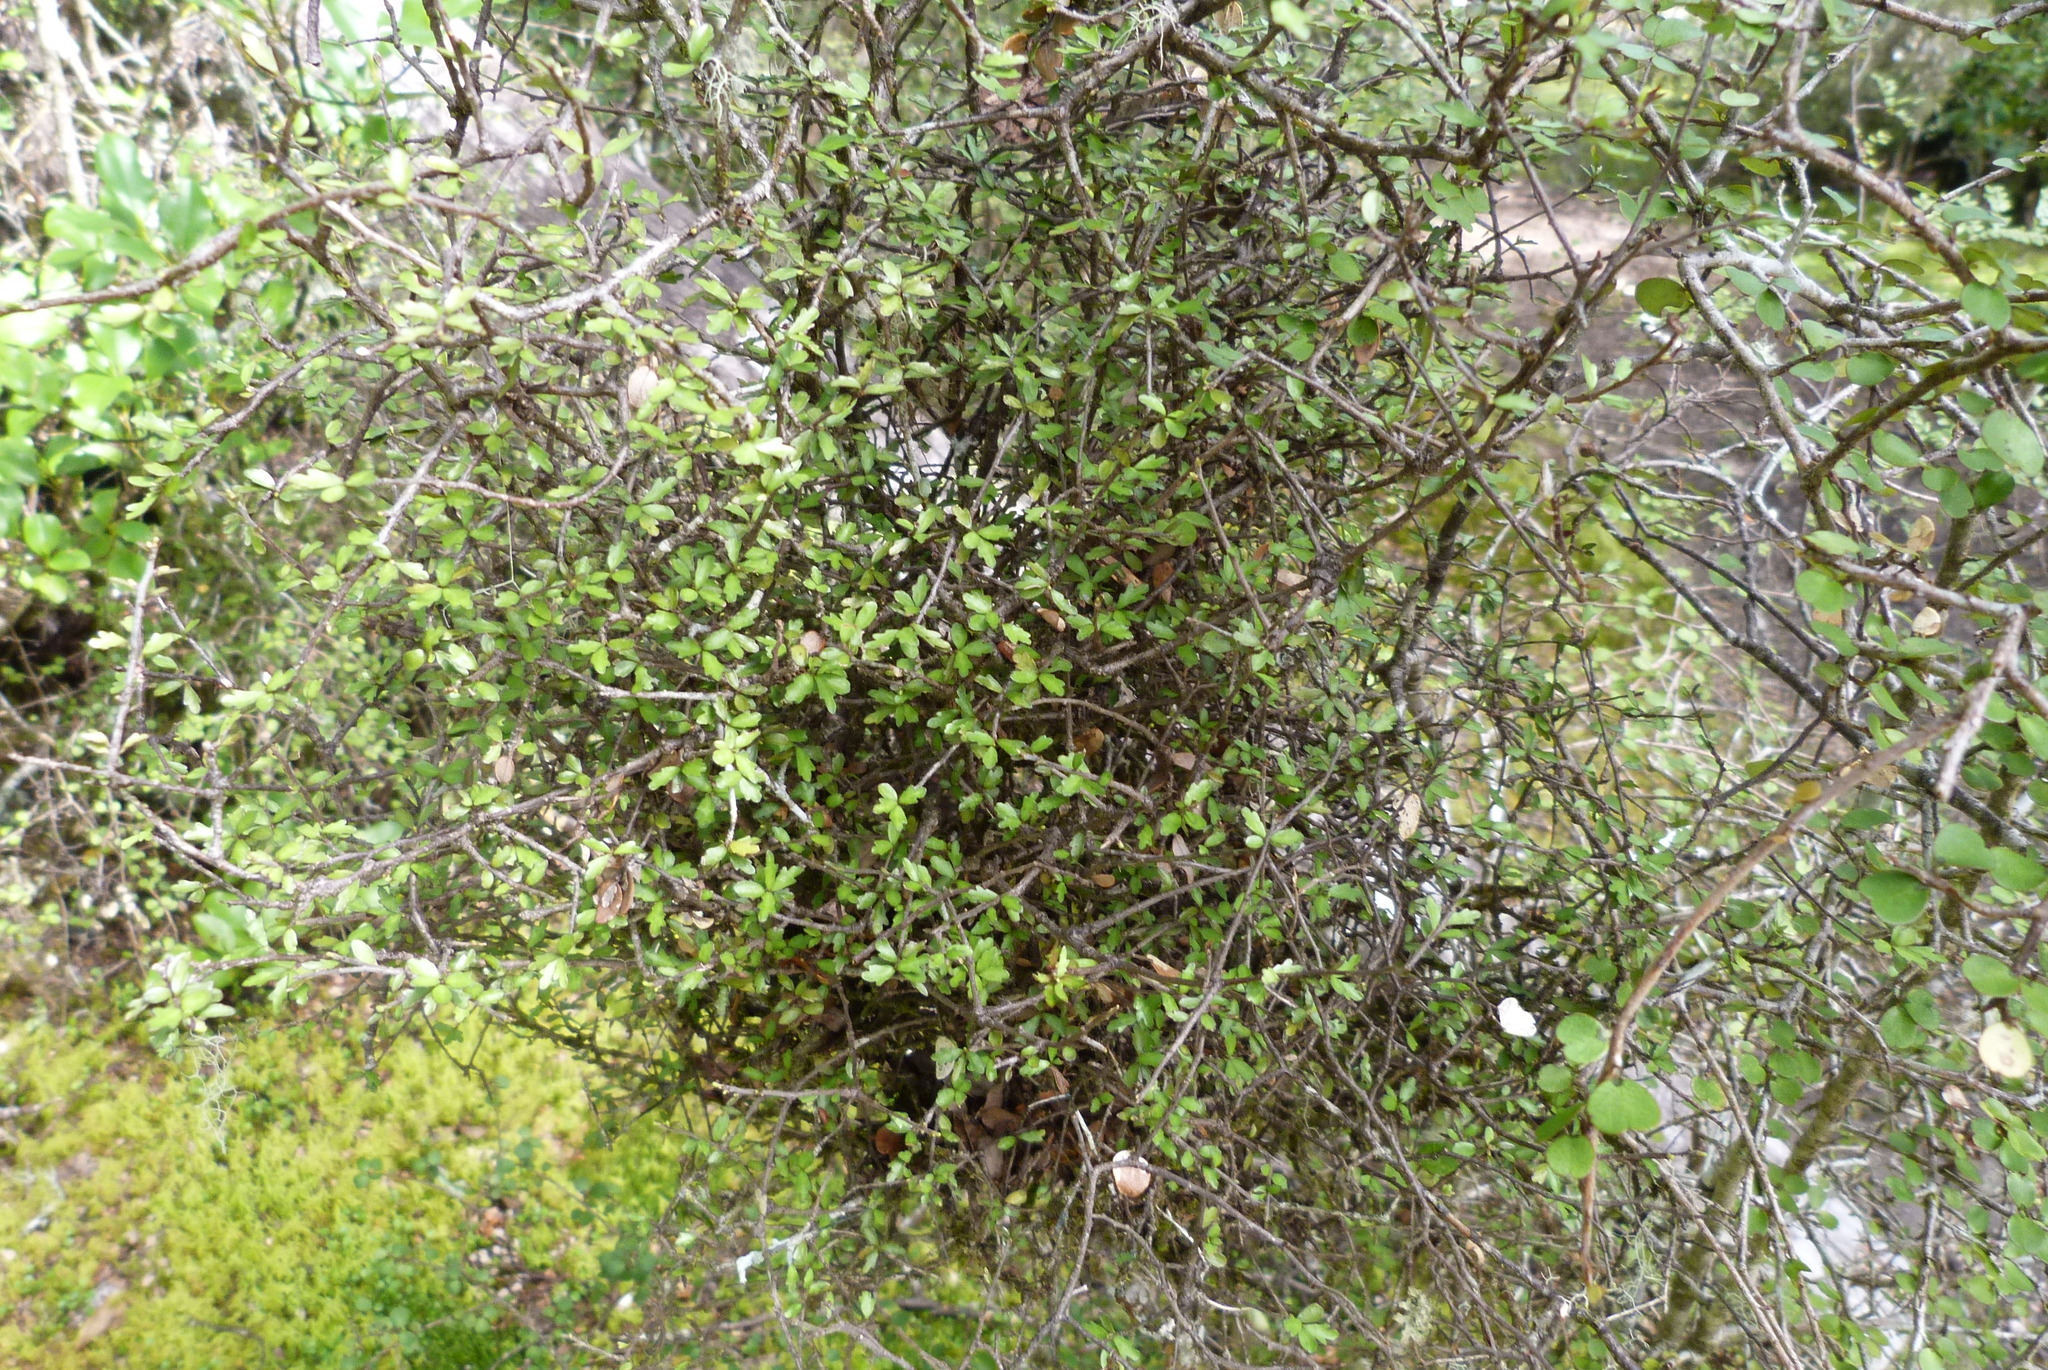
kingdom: Plantae
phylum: Tracheophyta
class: Magnoliopsida
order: Apiales
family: Pittosporaceae
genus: Pittosporum
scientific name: Pittosporum divaricatum
